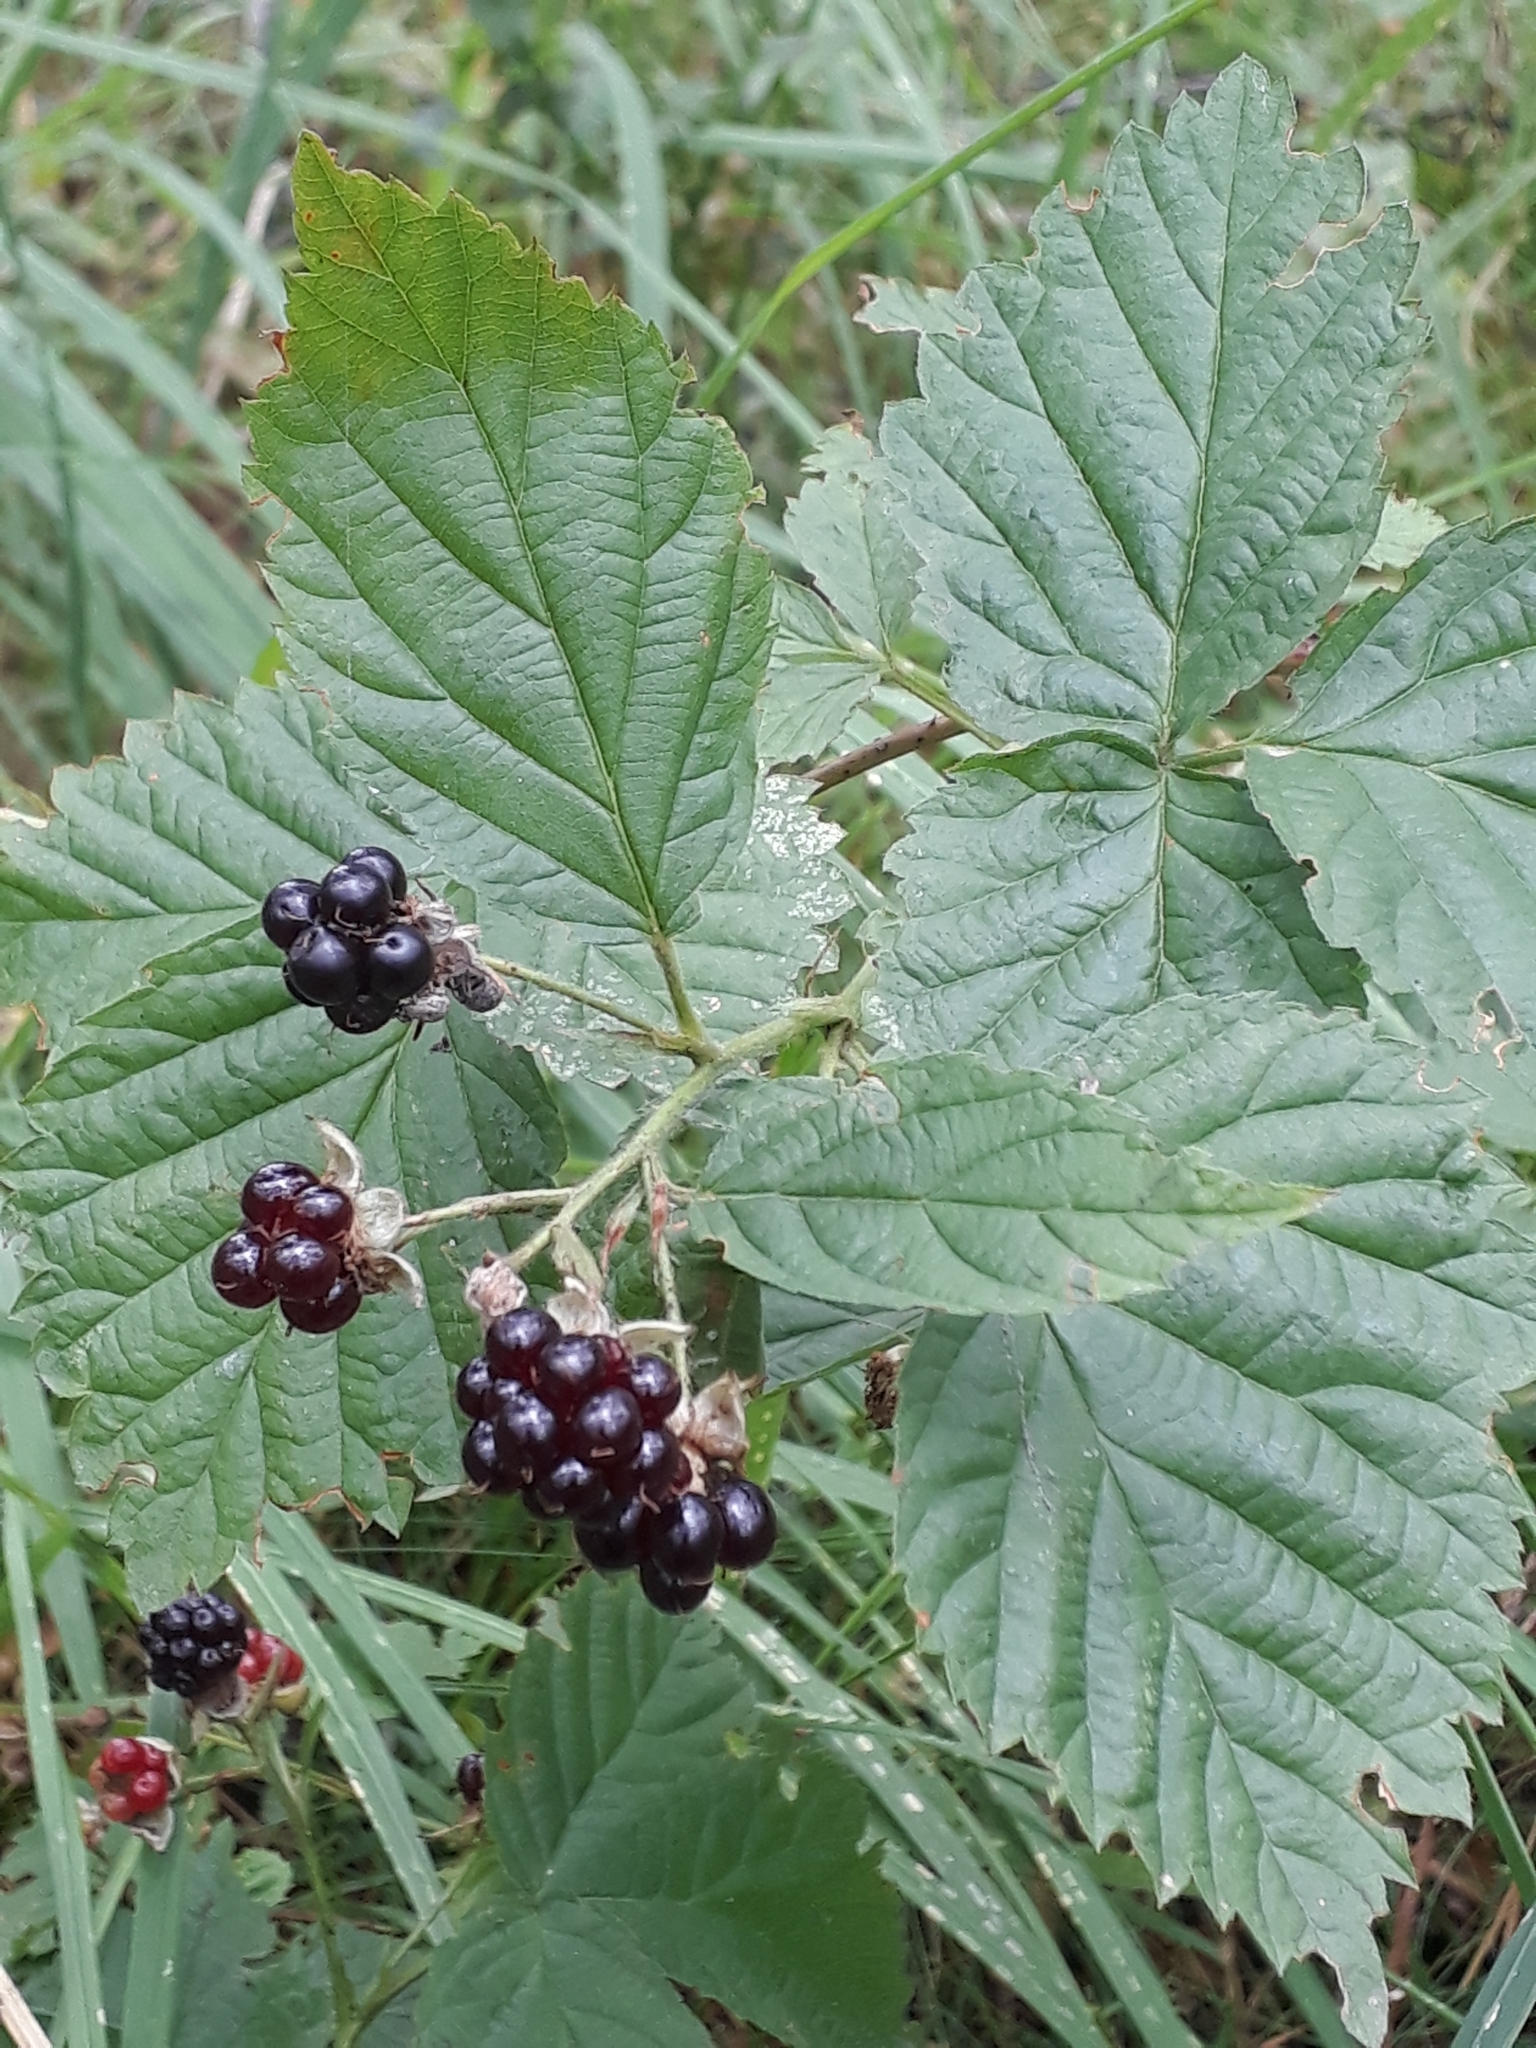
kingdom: Plantae
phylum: Tracheophyta
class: Magnoliopsida
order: Rosales
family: Rosaceae
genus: Rubus
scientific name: Rubus polonicus
